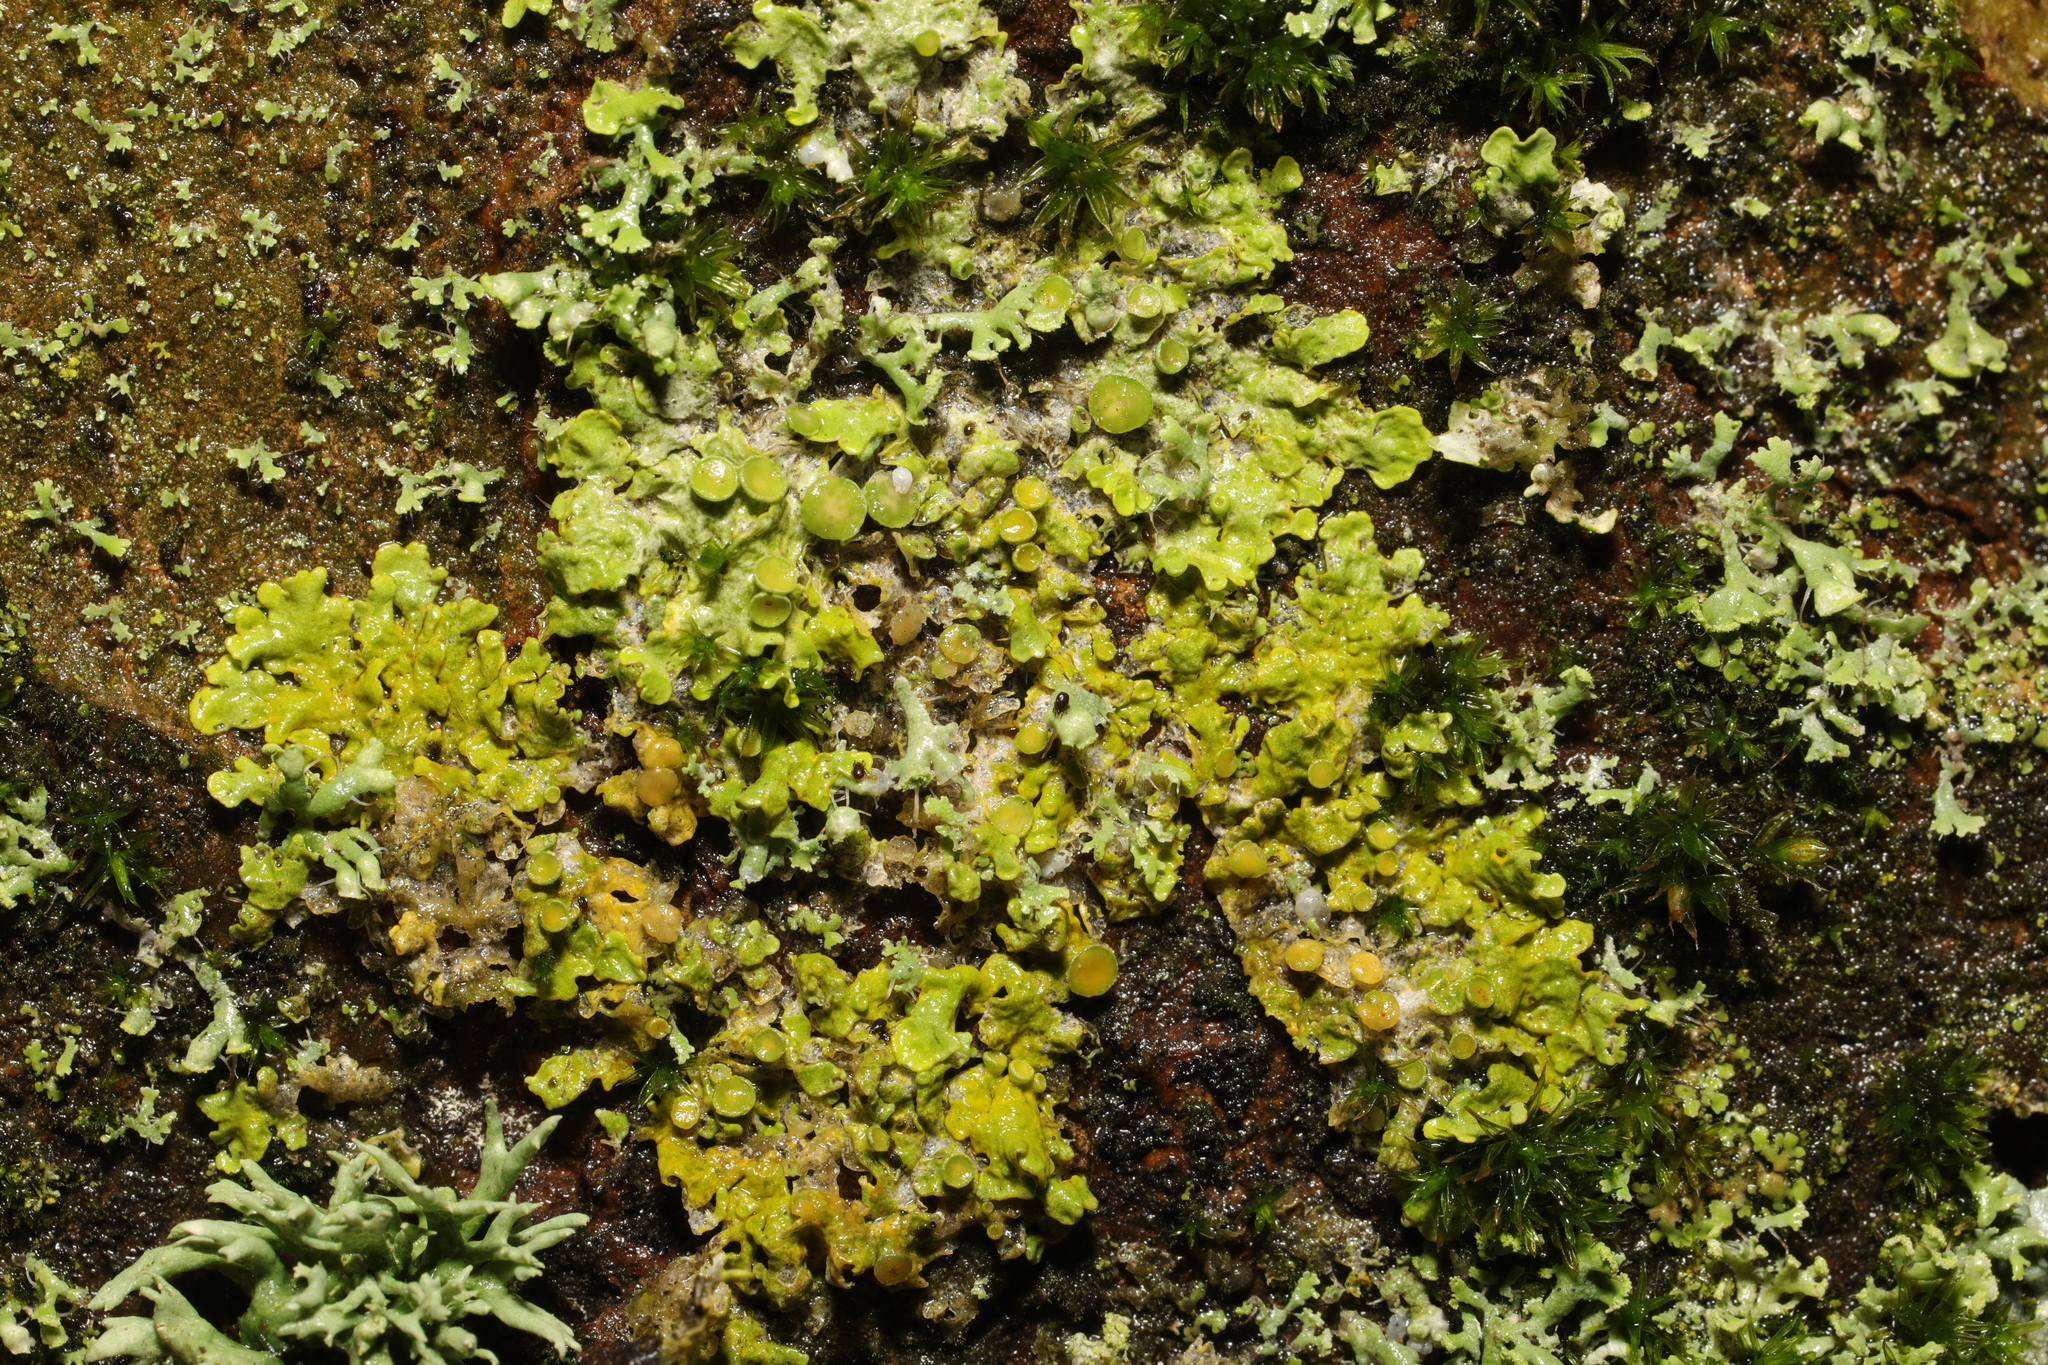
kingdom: Fungi
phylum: Ascomycota
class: Lecanoromycetes
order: Teloschistales
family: Teloschistaceae
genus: Xanthoria
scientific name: Xanthoria parietina
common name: Common orange lichen
